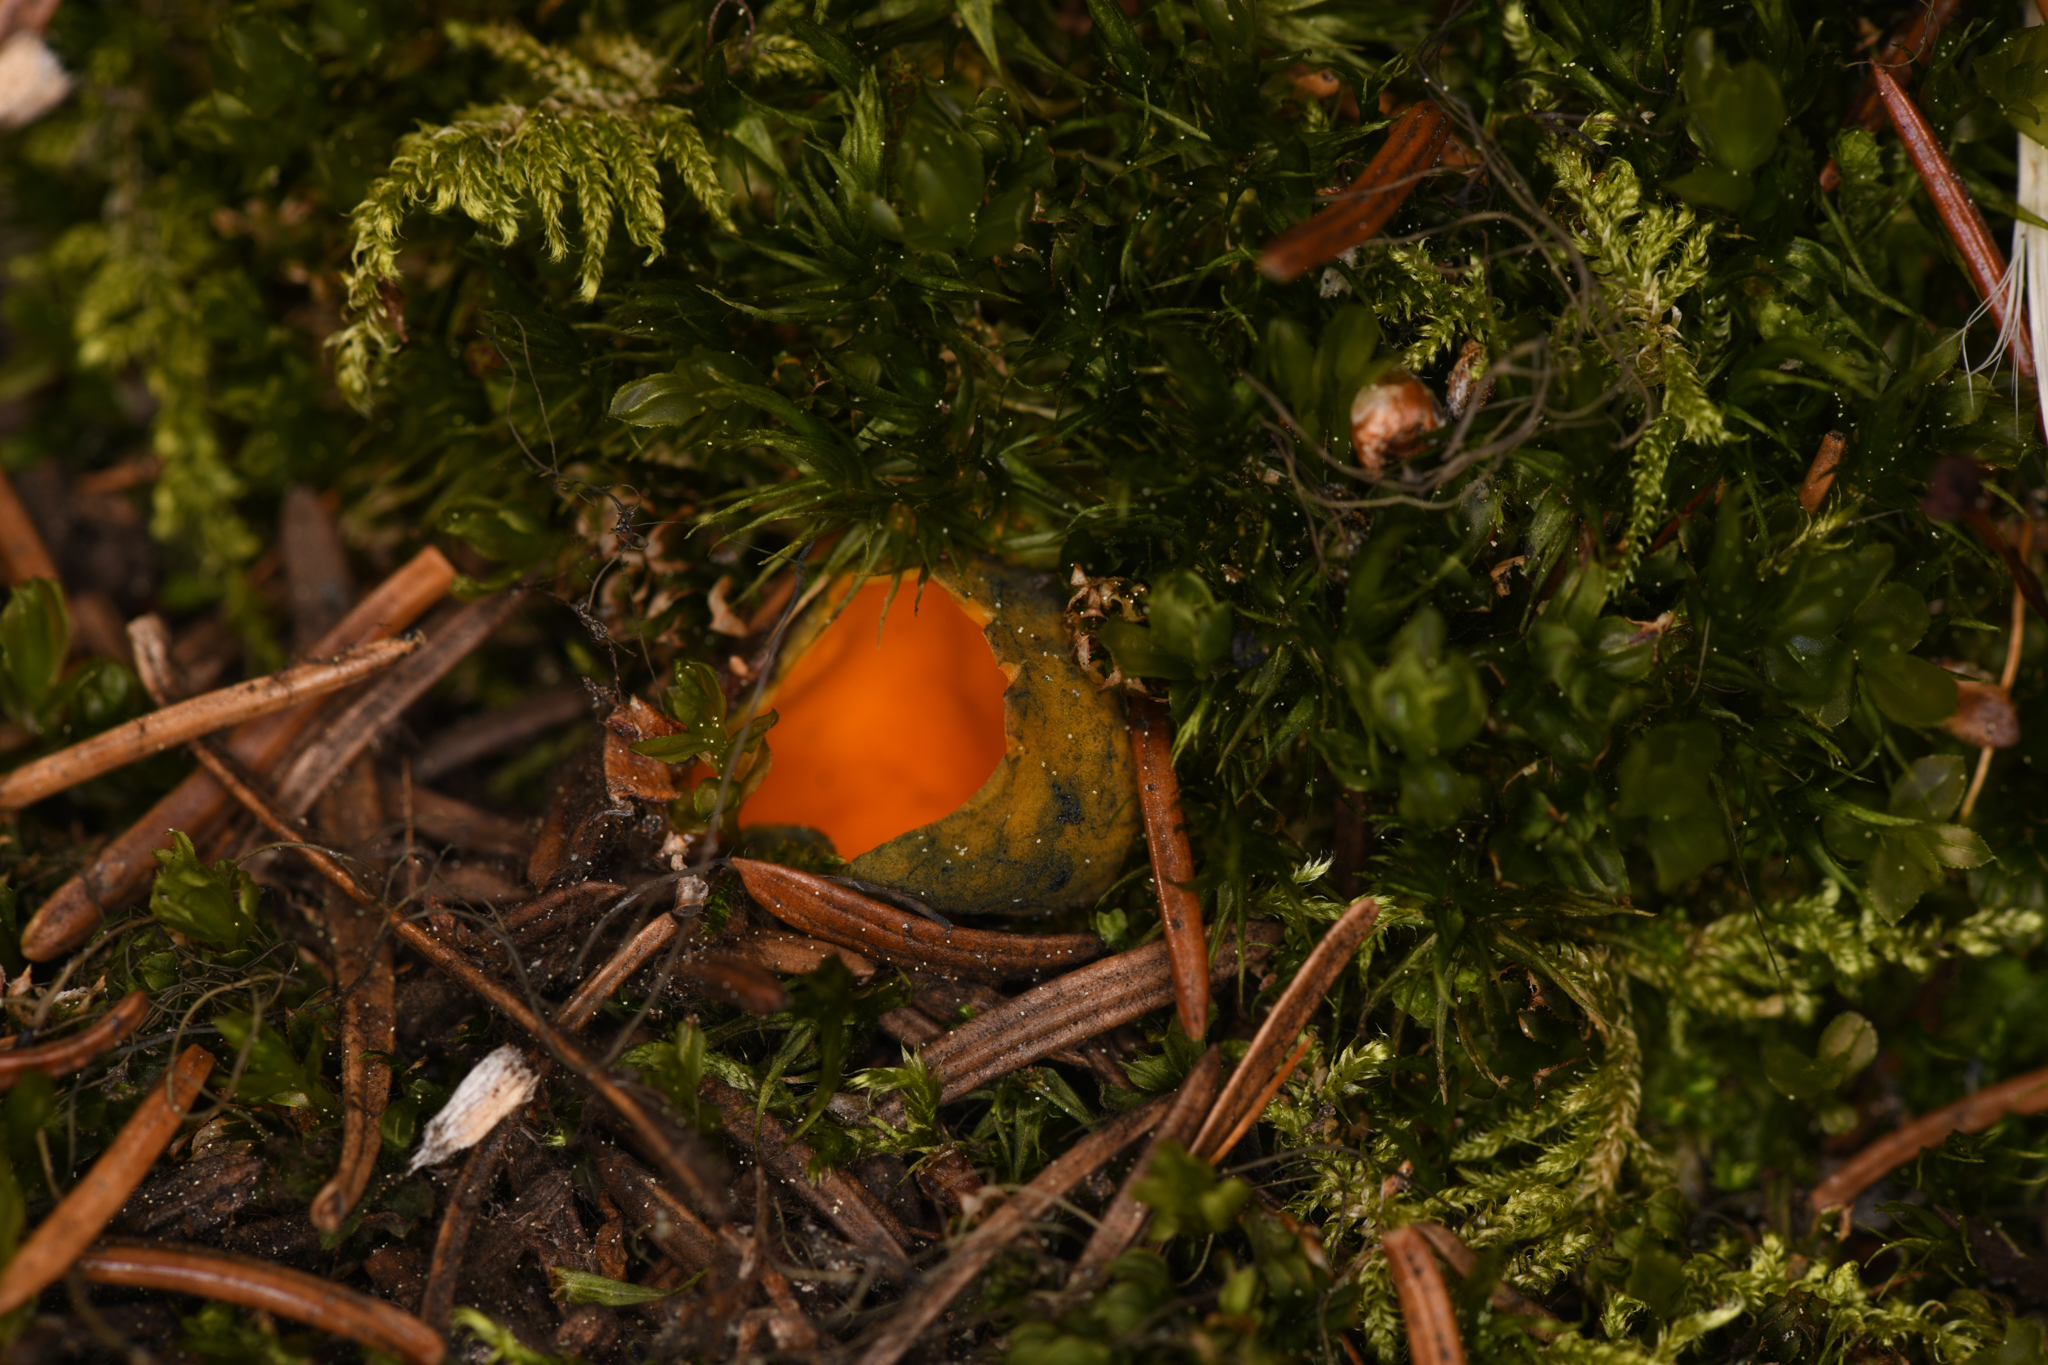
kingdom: Fungi
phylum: Ascomycota
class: Pezizomycetes
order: Pezizales
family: Caloscyphaceae
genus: Caloscypha
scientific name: Caloscypha fulgens
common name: Golden cup
